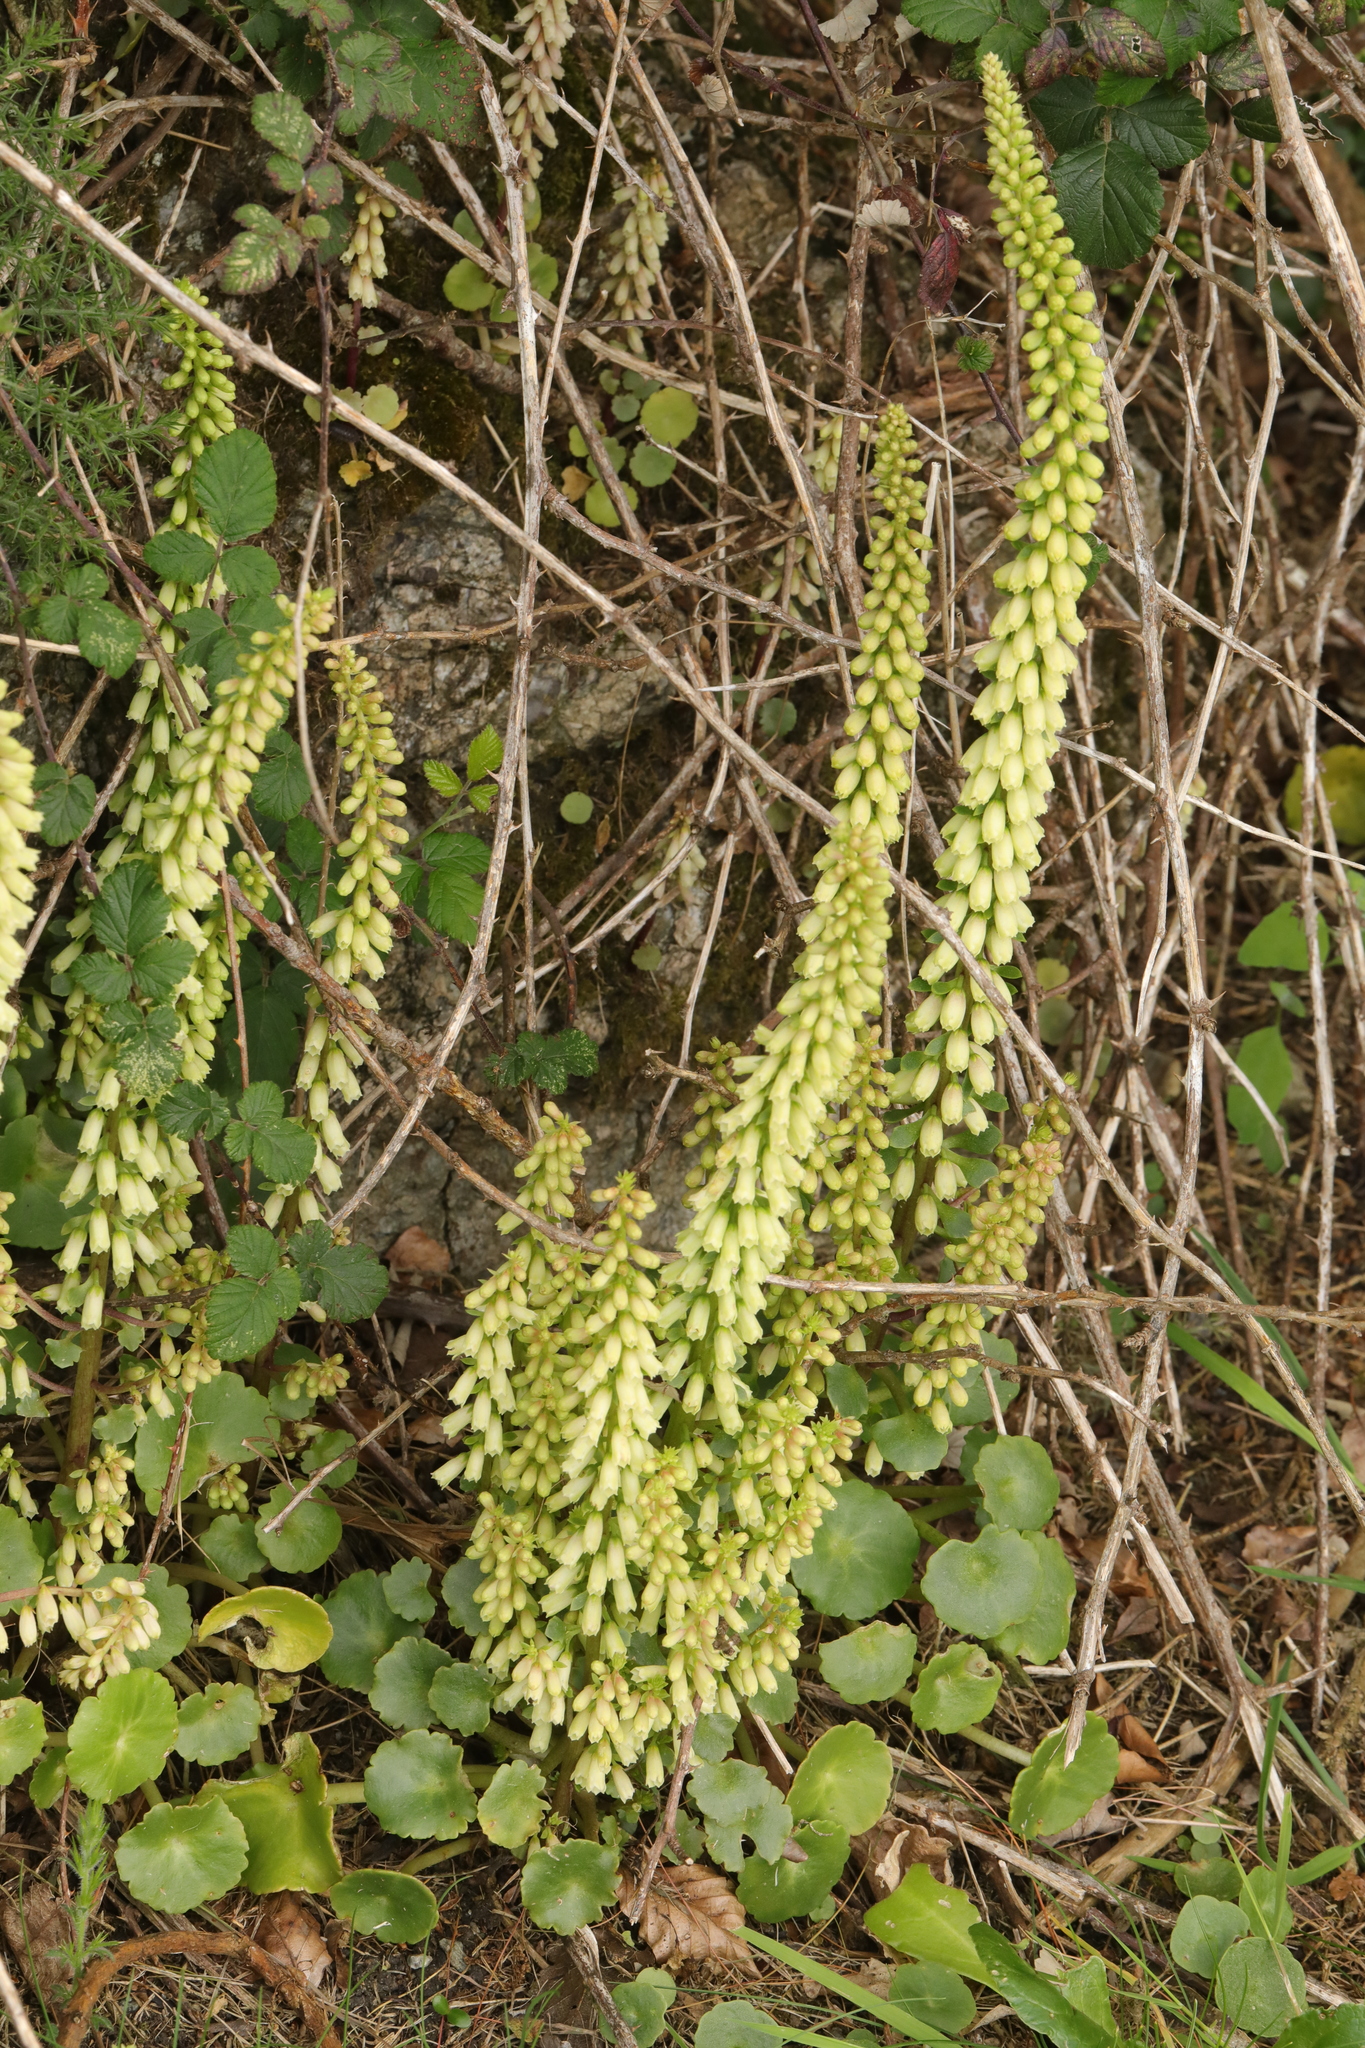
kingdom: Plantae
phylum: Tracheophyta
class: Magnoliopsida
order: Saxifragales
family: Crassulaceae
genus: Umbilicus
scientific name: Umbilicus rupestris
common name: Navelwort
